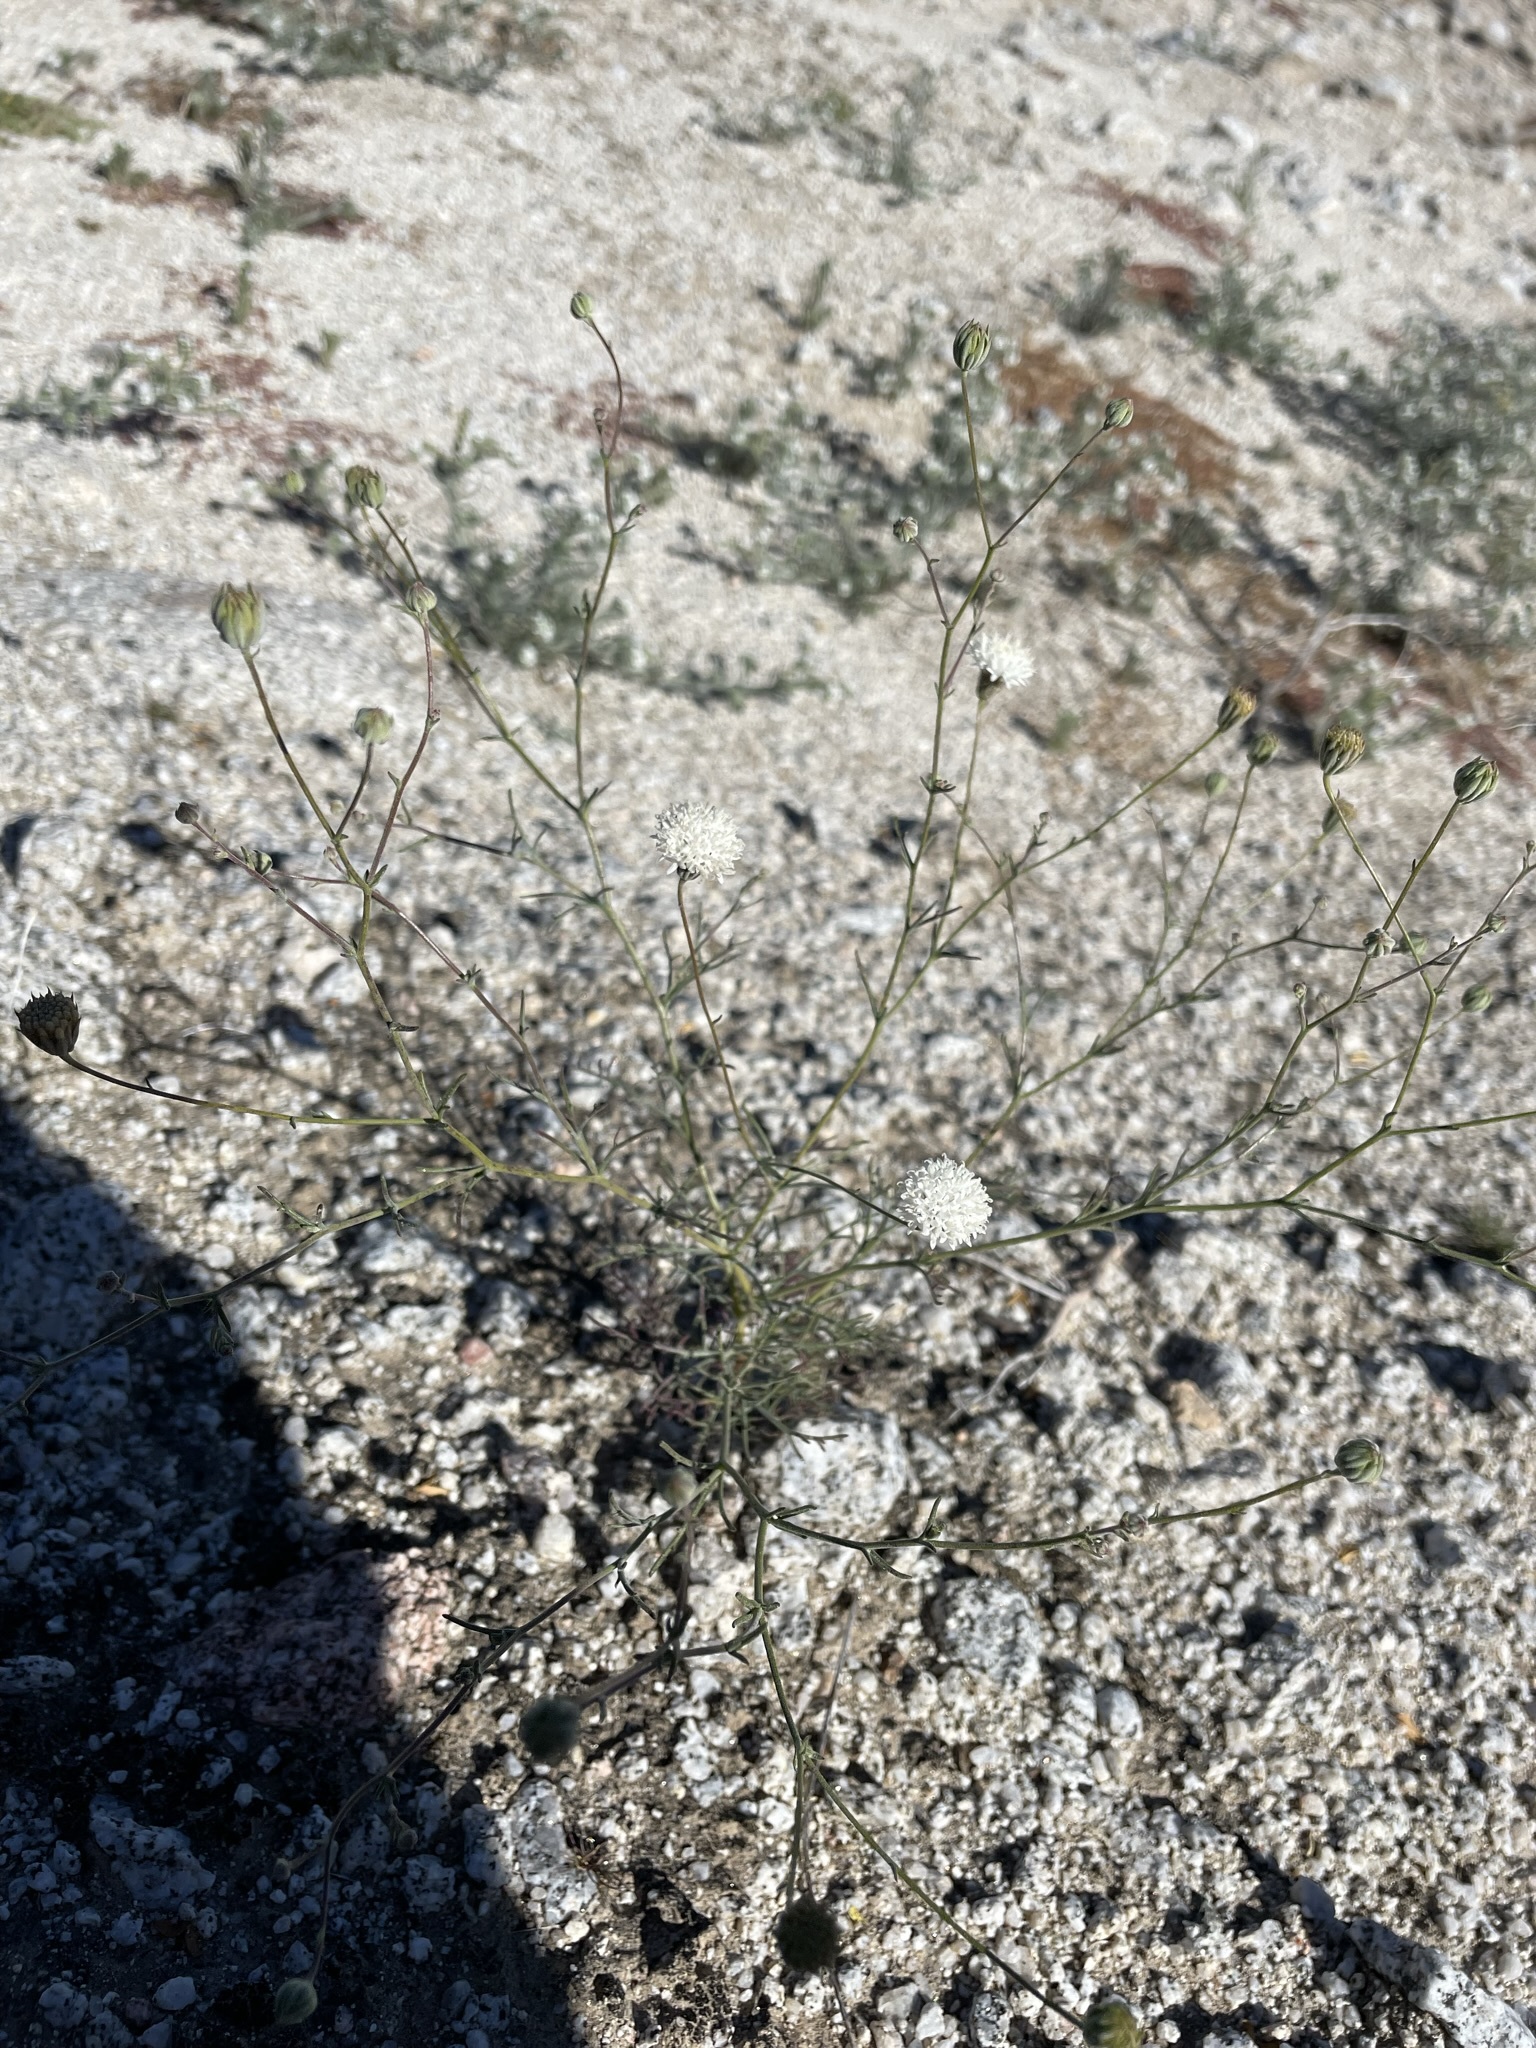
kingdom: Plantae
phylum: Tracheophyta
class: Magnoliopsida
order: Asterales
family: Asteraceae
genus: Chaenactis
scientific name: Chaenactis carphoclinia
